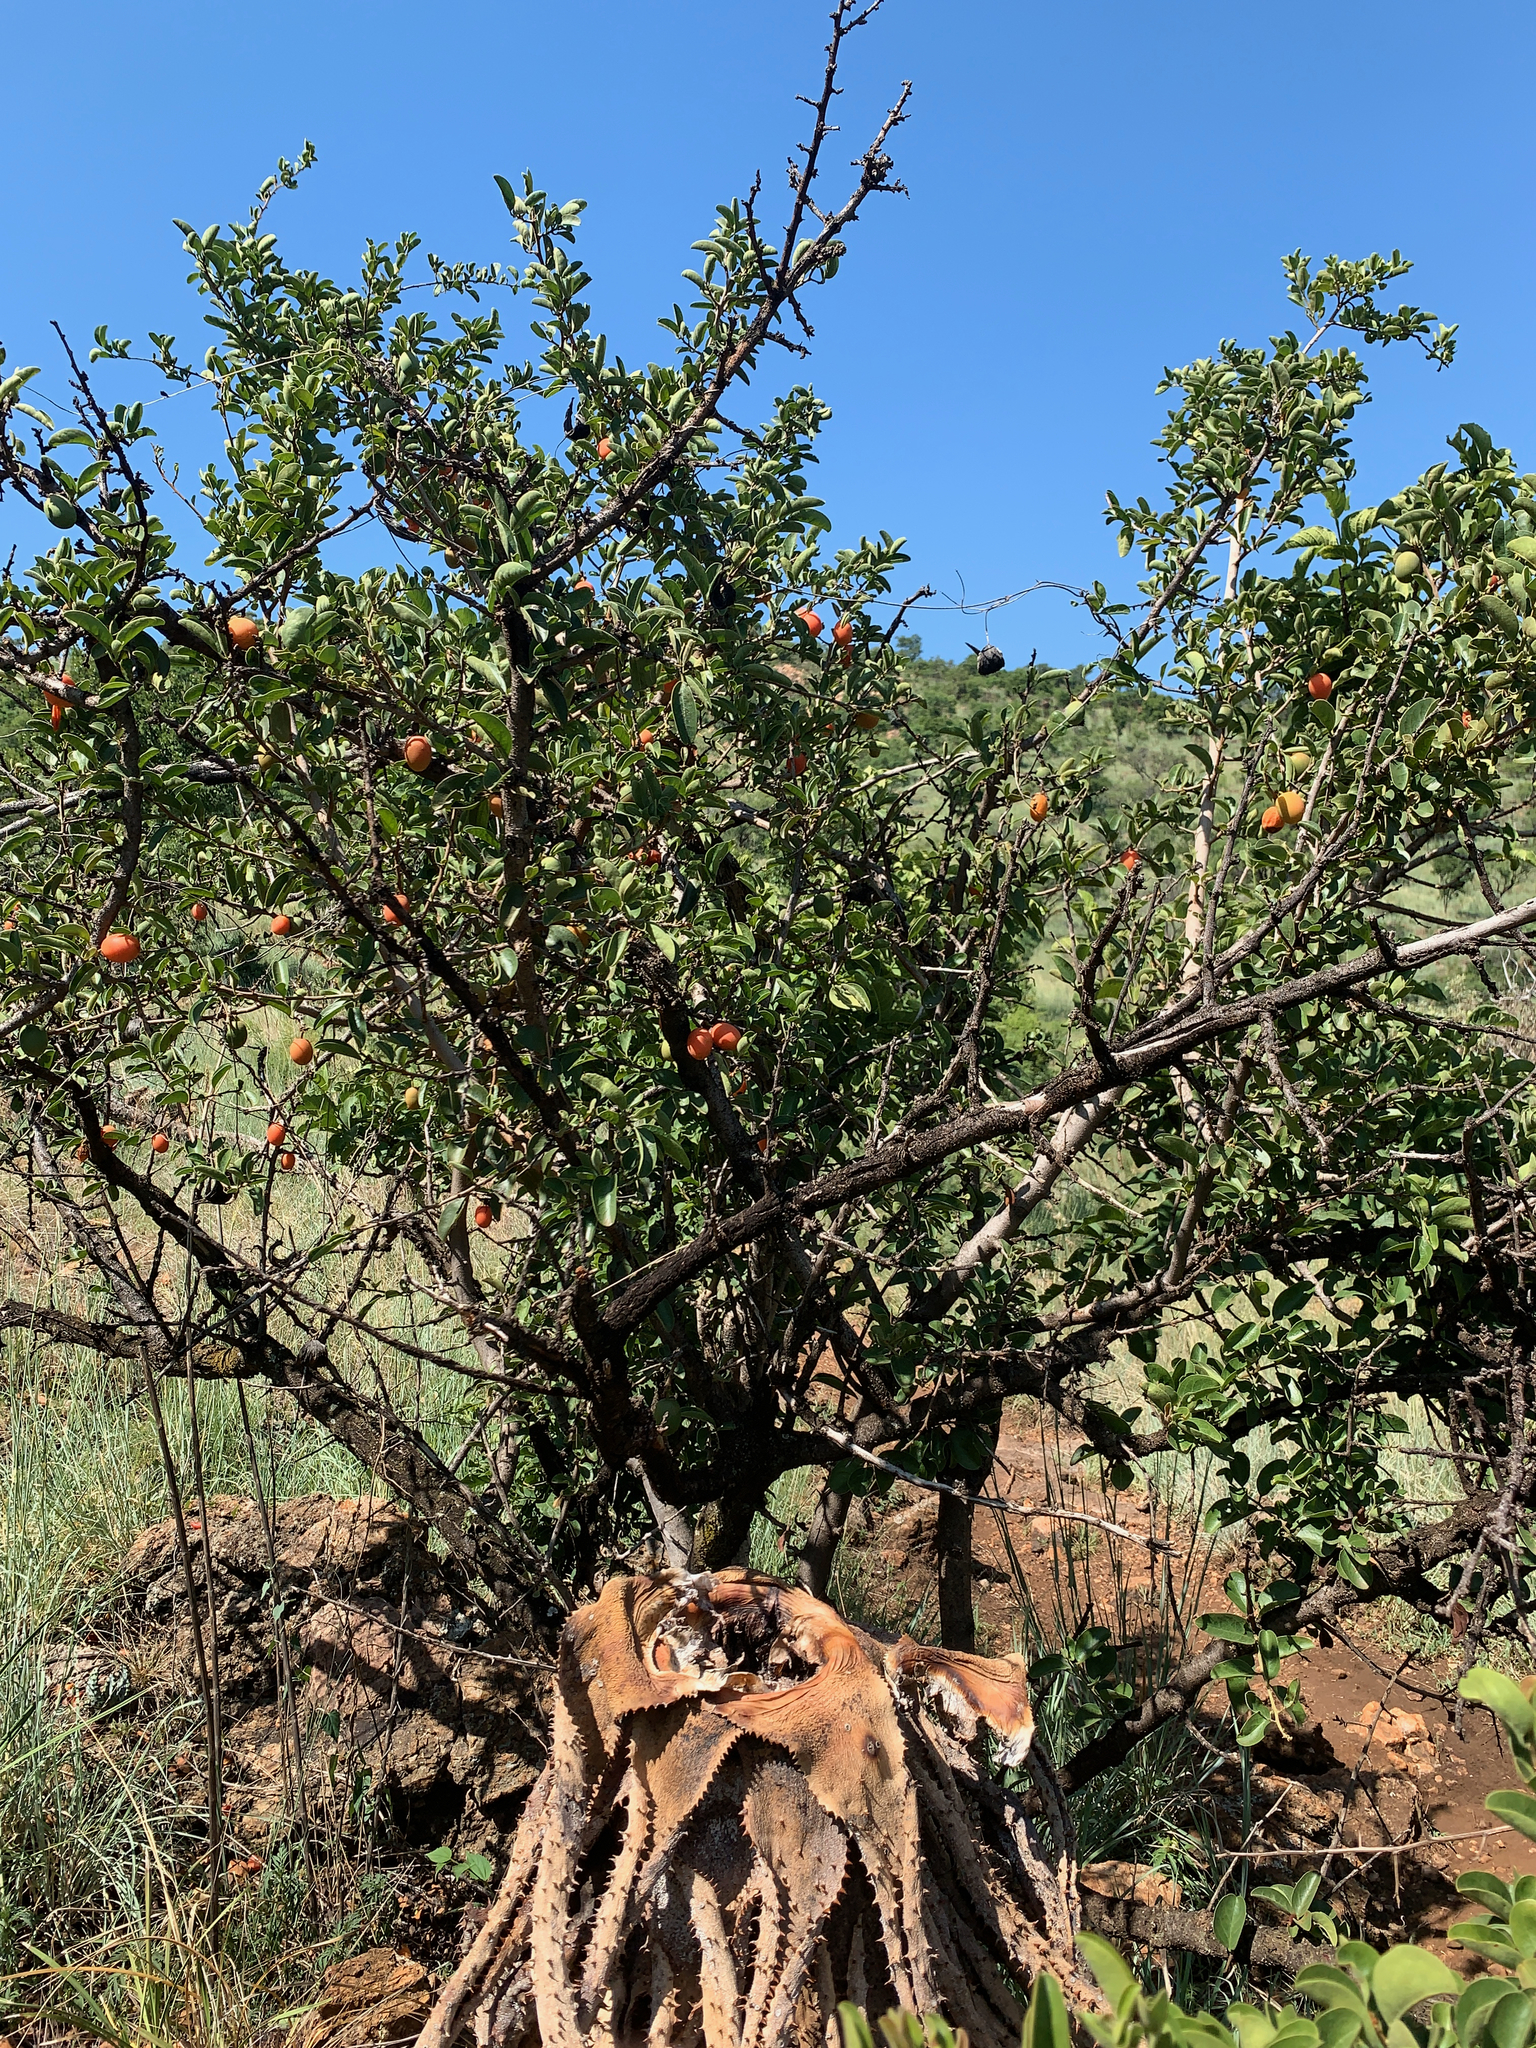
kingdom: Plantae
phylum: Tracheophyta
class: Magnoliopsida
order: Santalales
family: Ximeniaceae
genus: Ximenia
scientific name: Ximenia caffra
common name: Large sourplum
